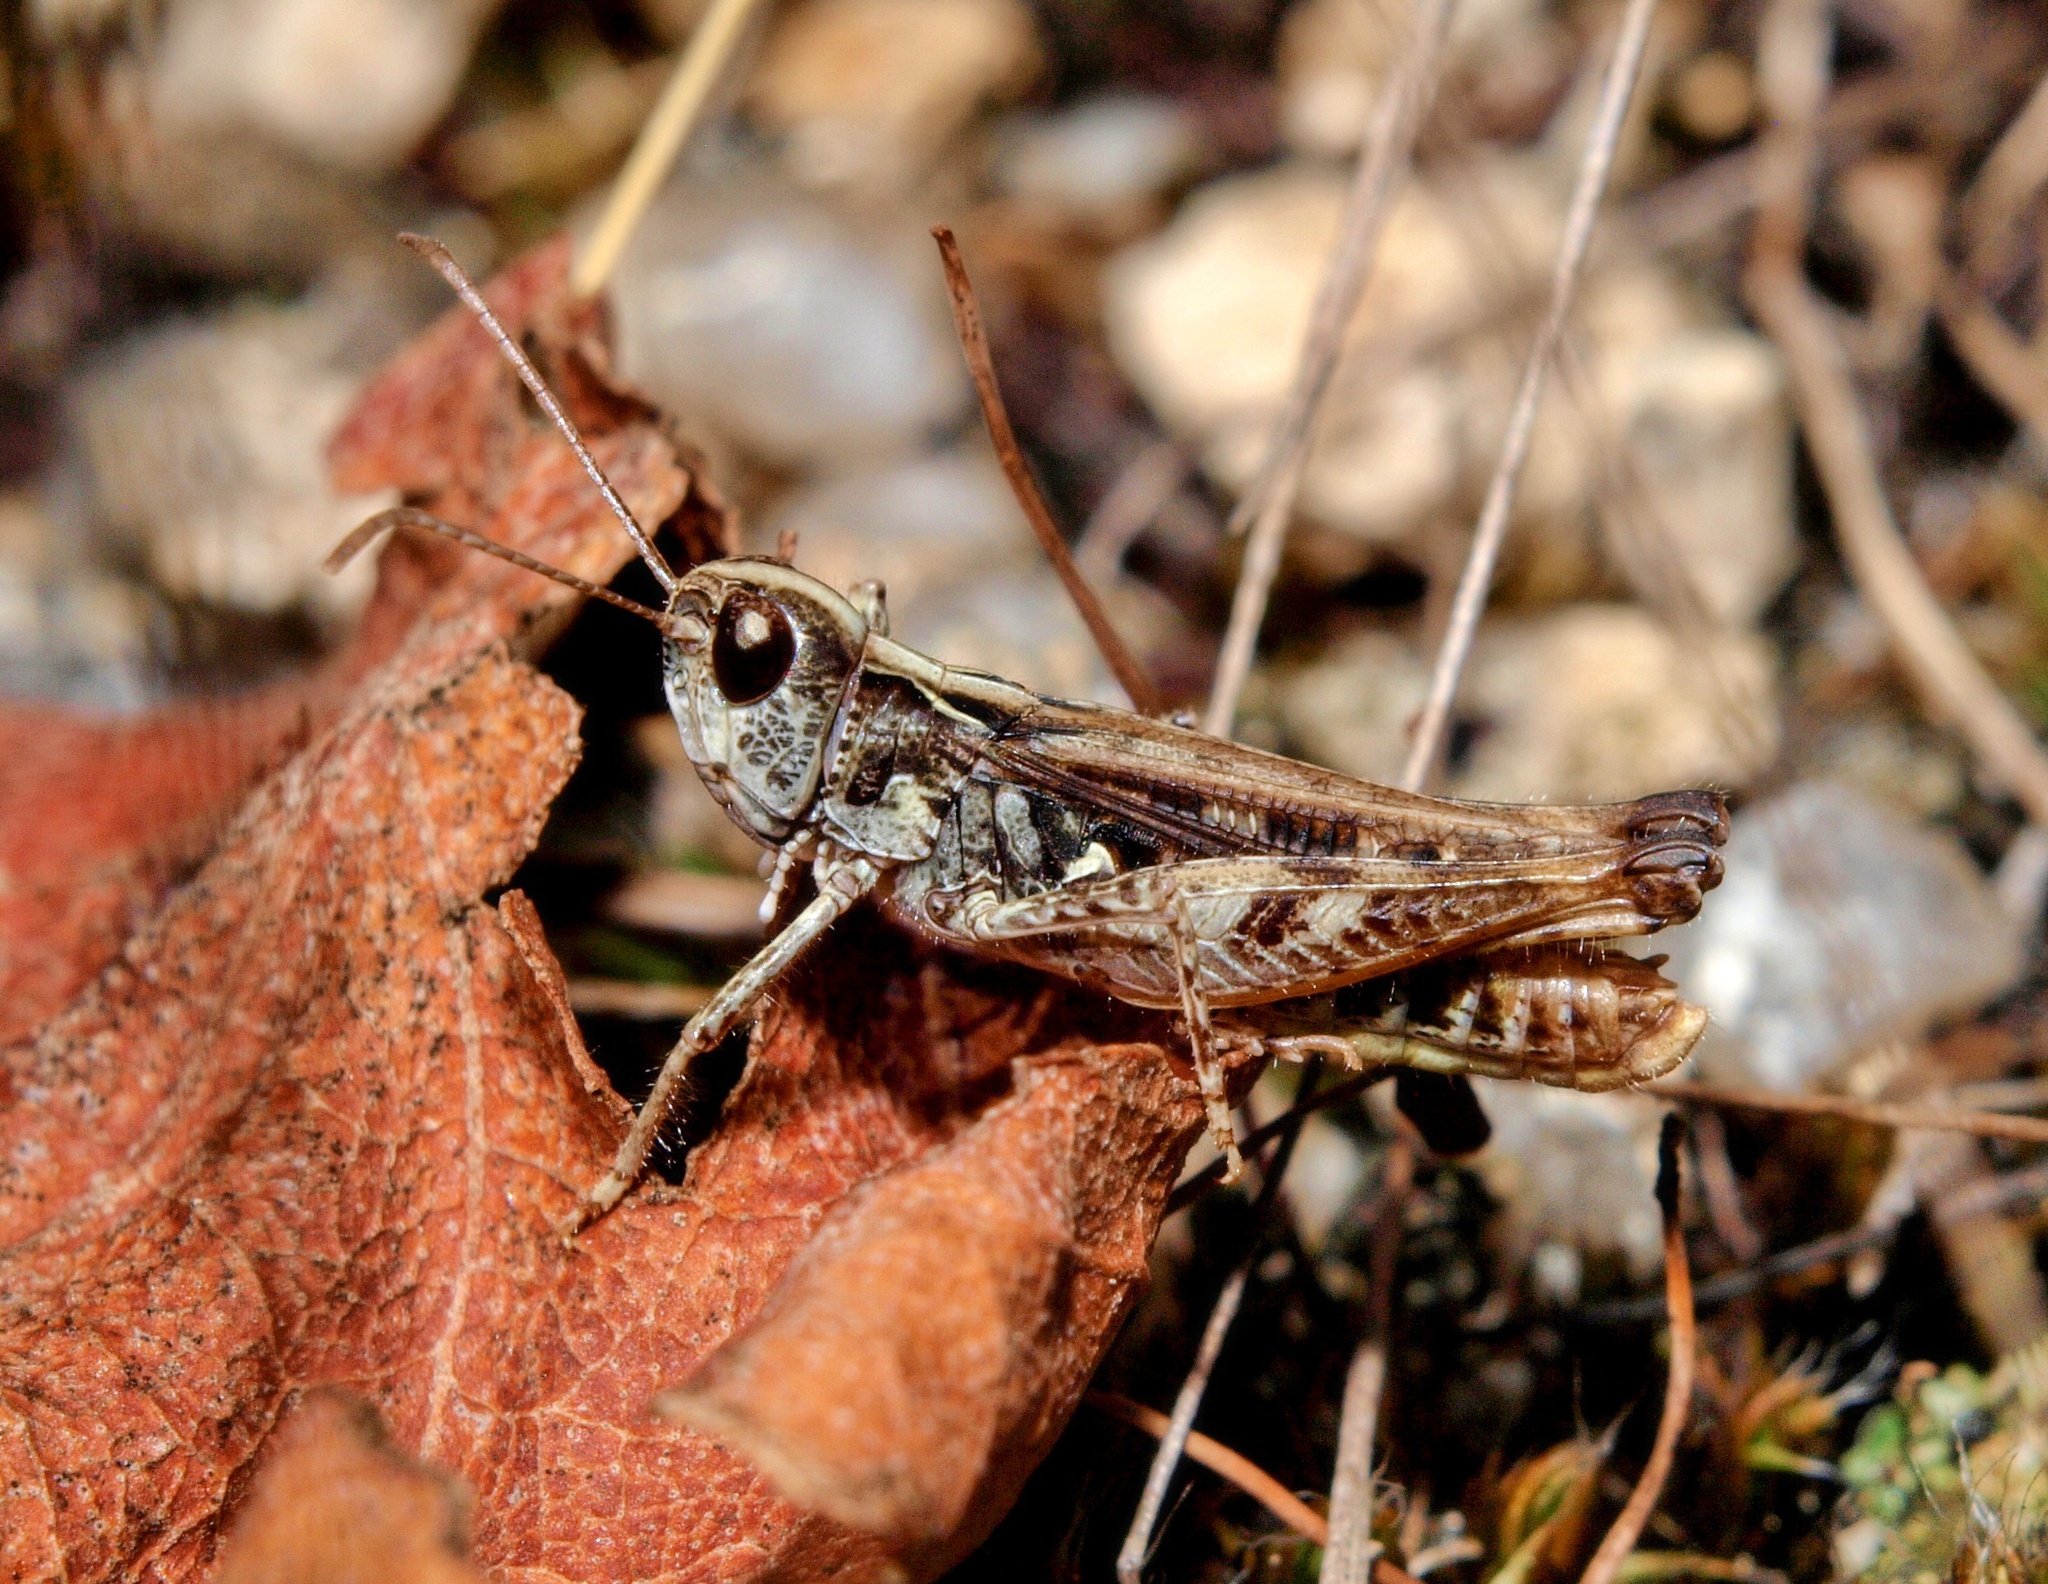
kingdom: Animalia
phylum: Arthropoda
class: Insecta
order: Orthoptera
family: Acrididae
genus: Myrmeleotettix
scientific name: Myrmeleotettix maculatus
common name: Mottled grasshopper
